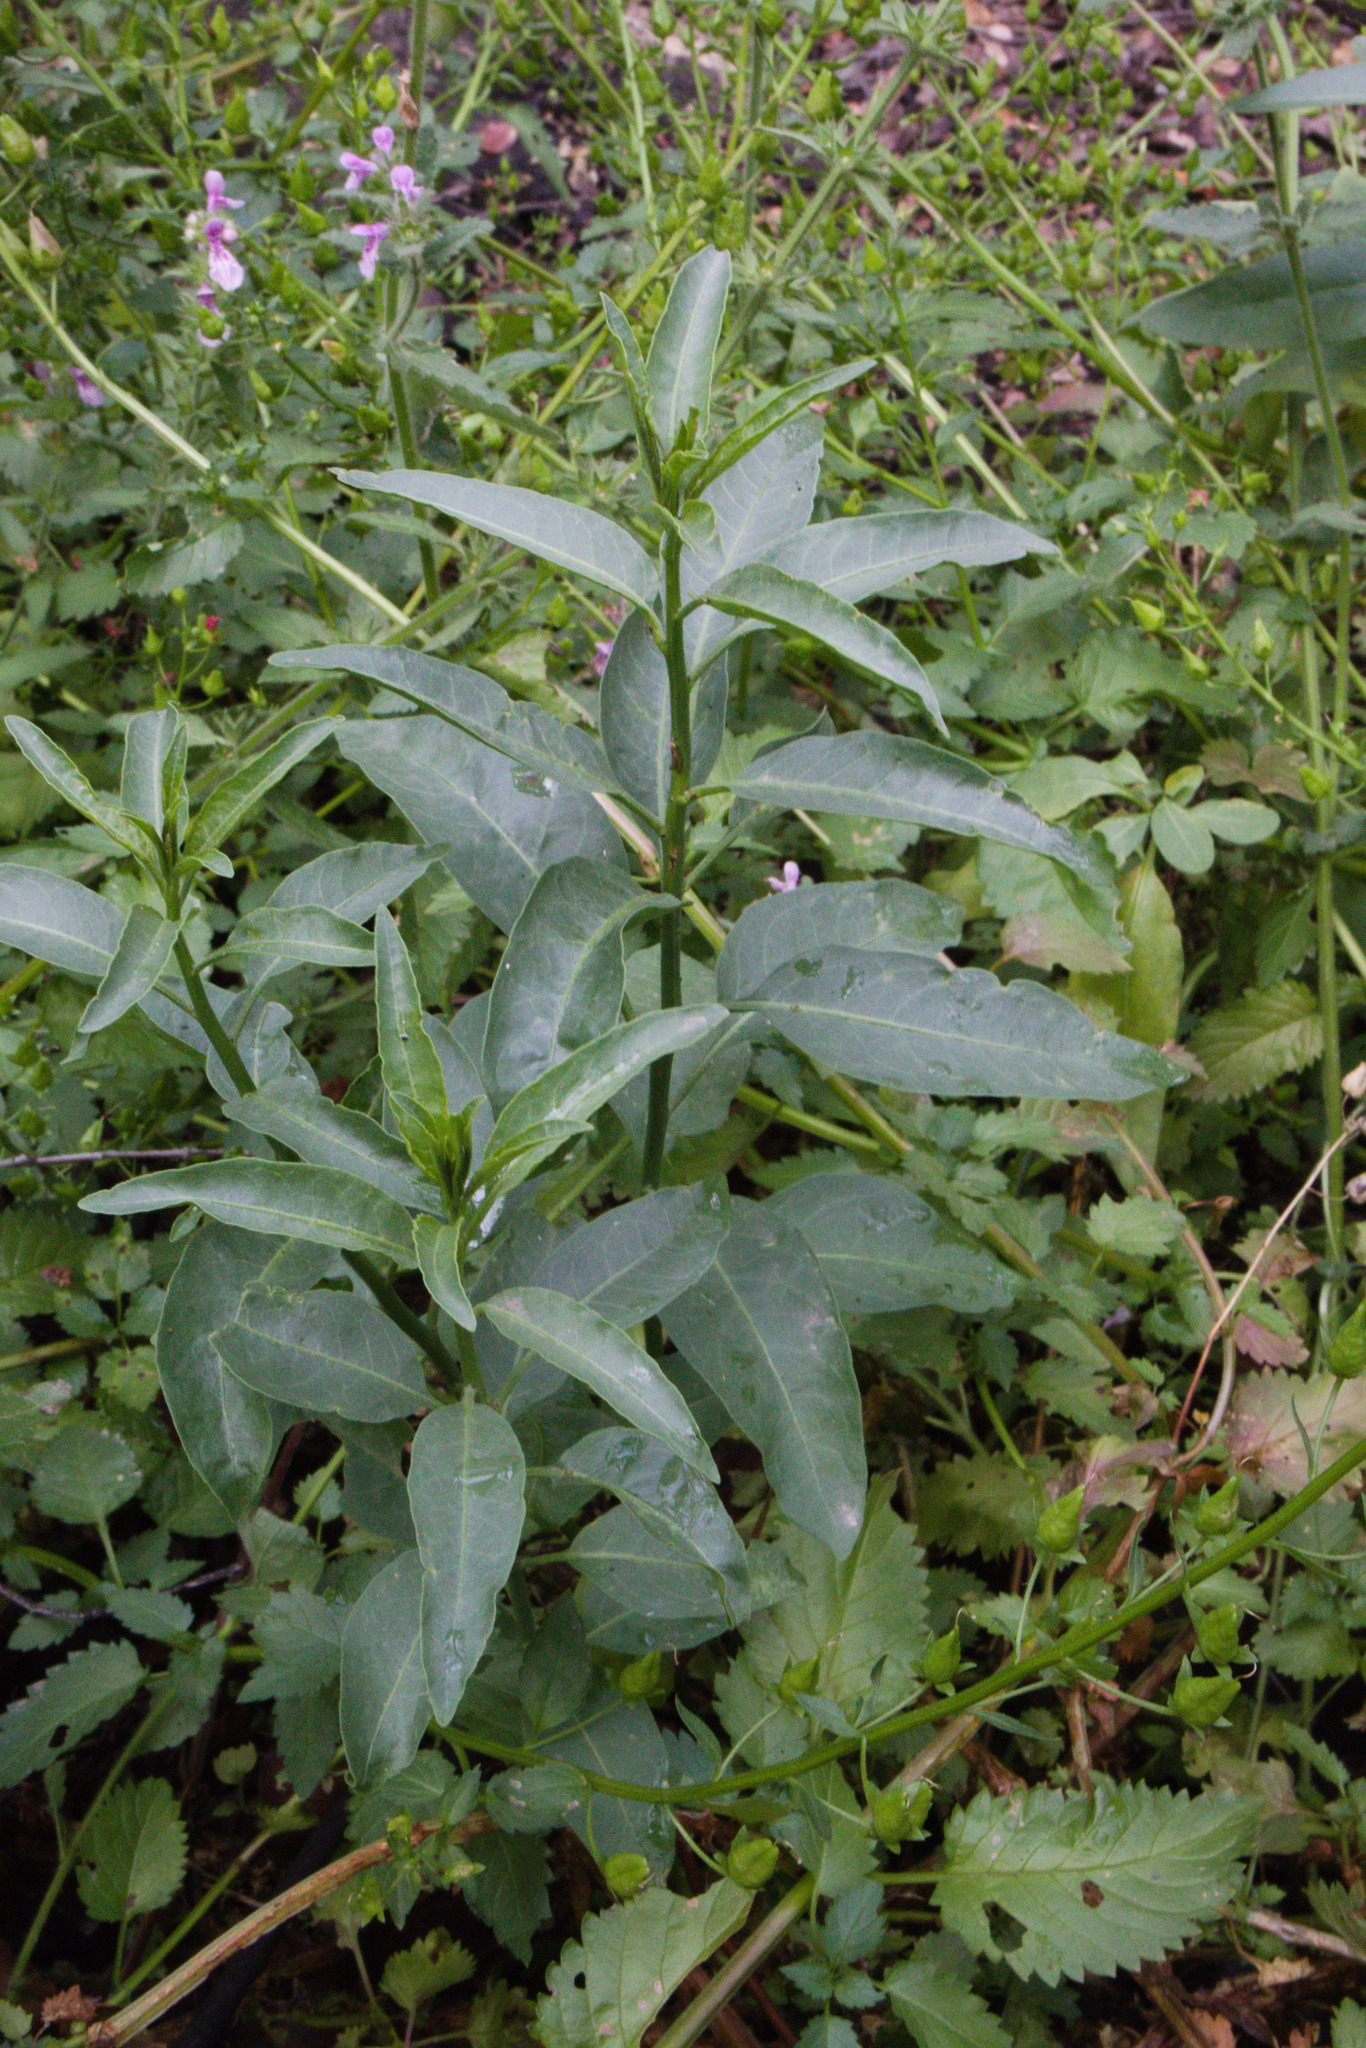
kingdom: Plantae
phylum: Tracheophyta
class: Magnoliopsida
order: Solanales
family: Solanaceae
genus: Cestrum
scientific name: Cestrum parqui
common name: Chilean cestrum
